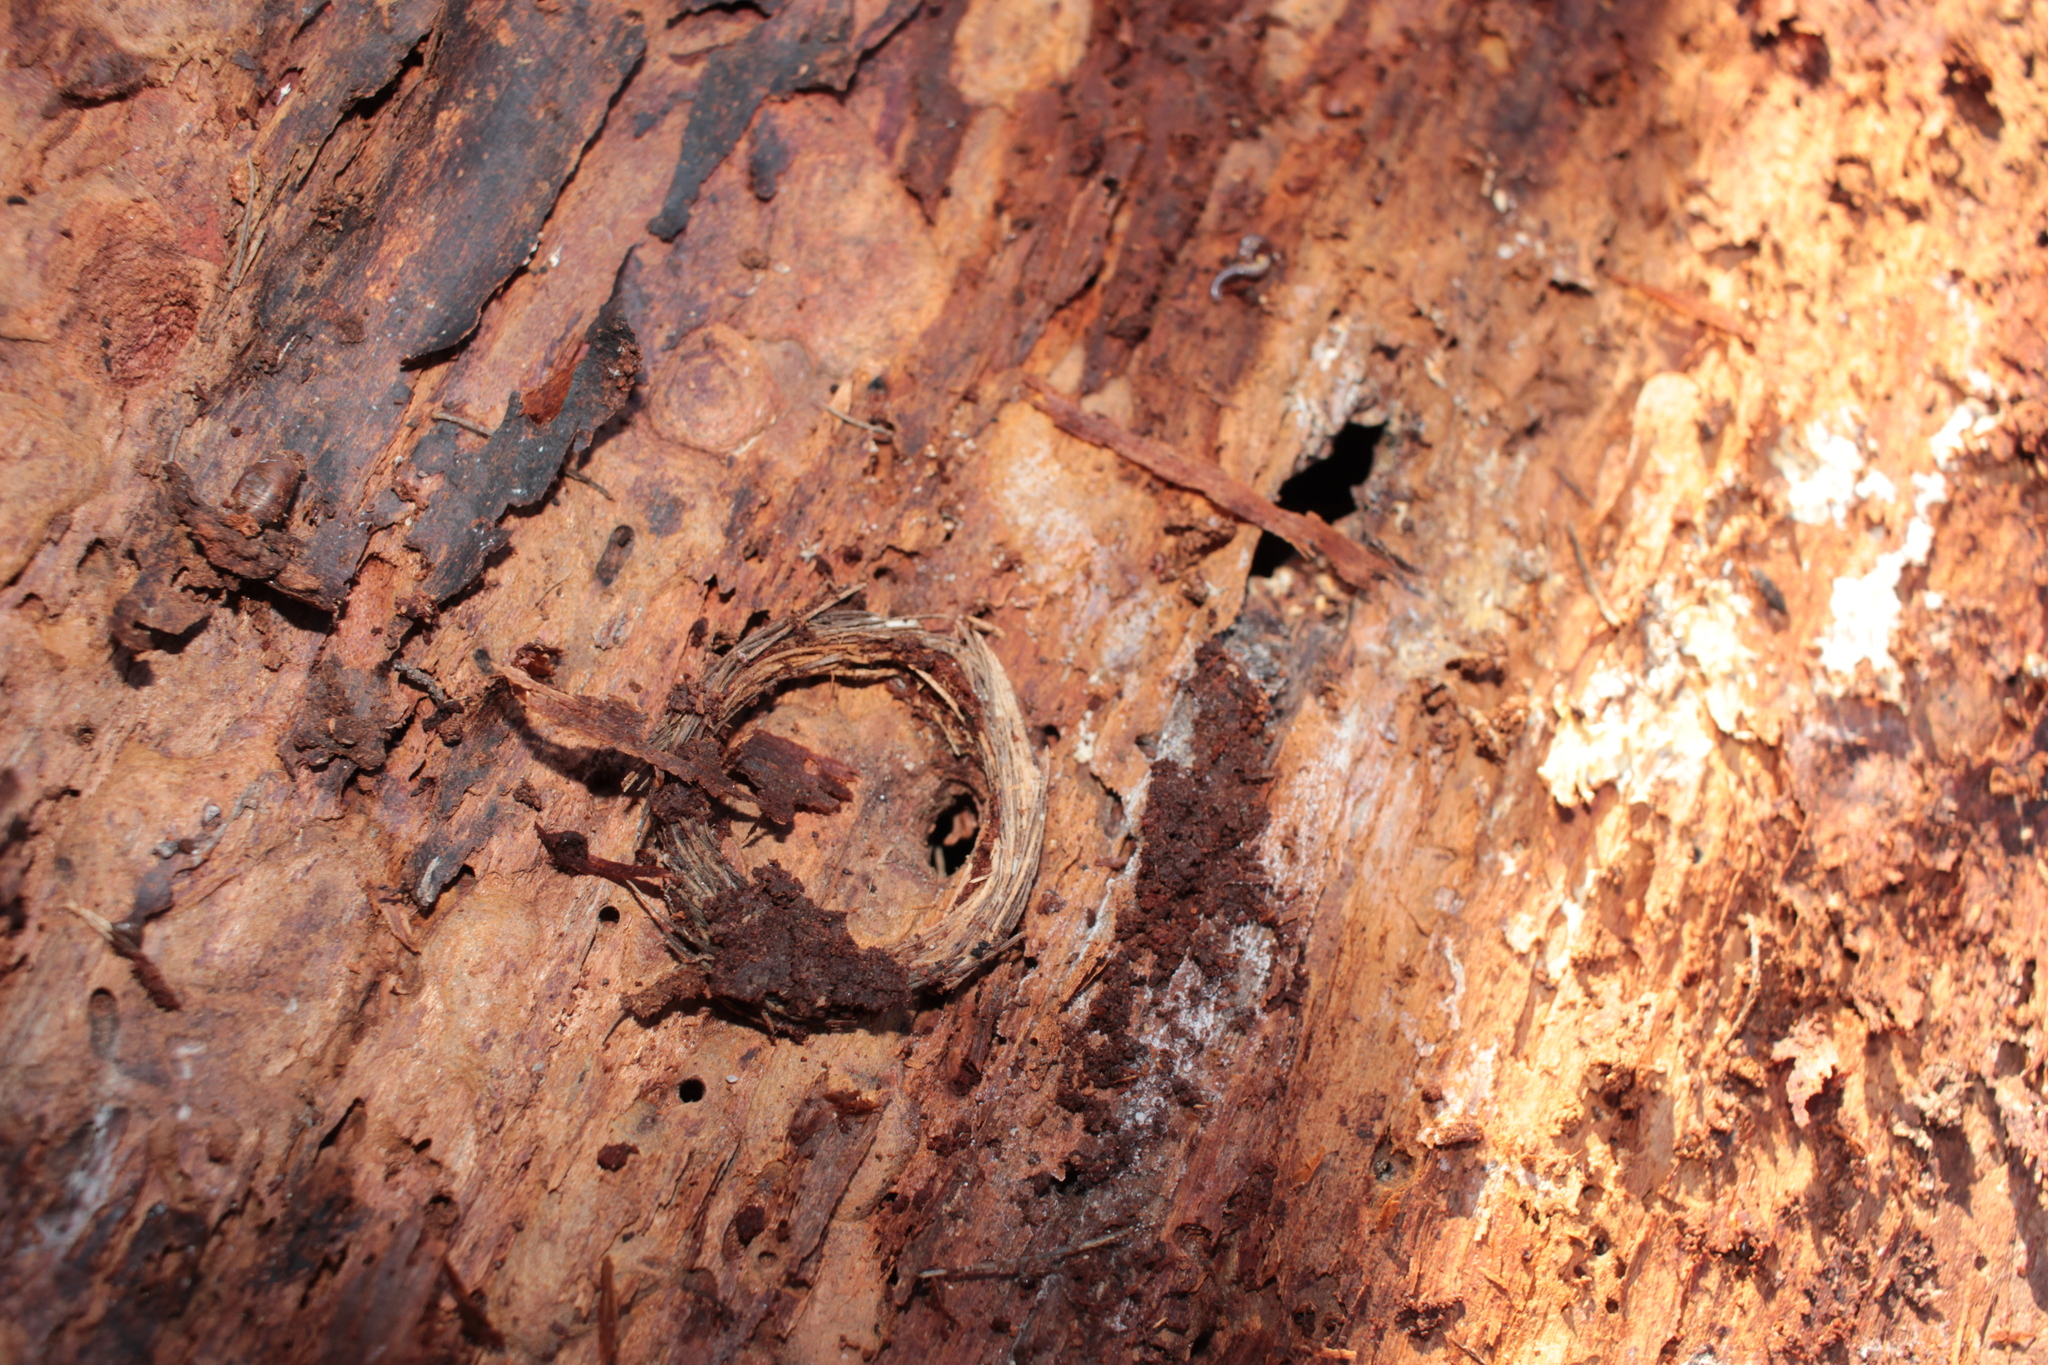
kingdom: Animalia
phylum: Arthropoda
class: Insecta
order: Coleoptera
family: Cerambycidae
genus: Rhagium
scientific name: Rhagium inquisitor
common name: Ribbed pine borer
